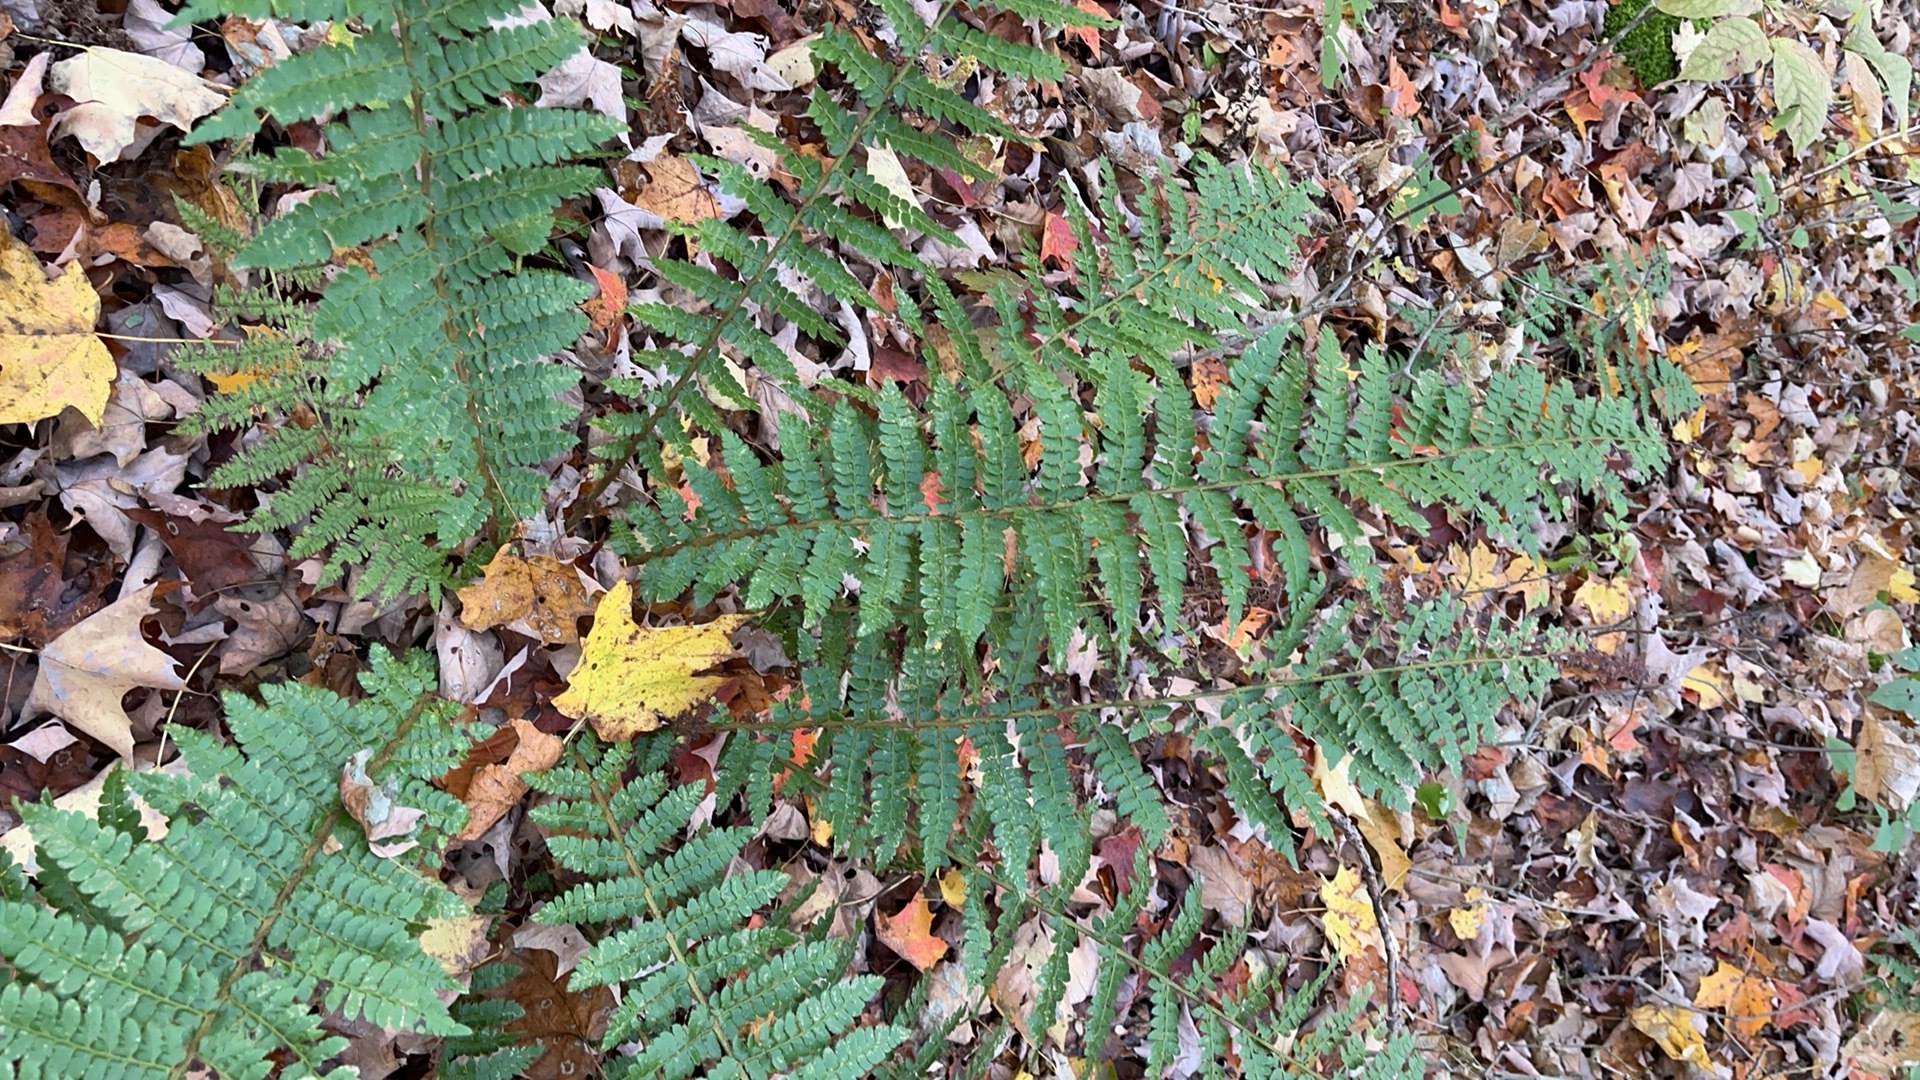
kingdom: Plantae
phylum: Tracheophyta
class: Polypodiopsida
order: Polypodiales
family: Dryopteridaceae
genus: Polystichum
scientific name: Polystichum braunii
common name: Braun's holly fern
